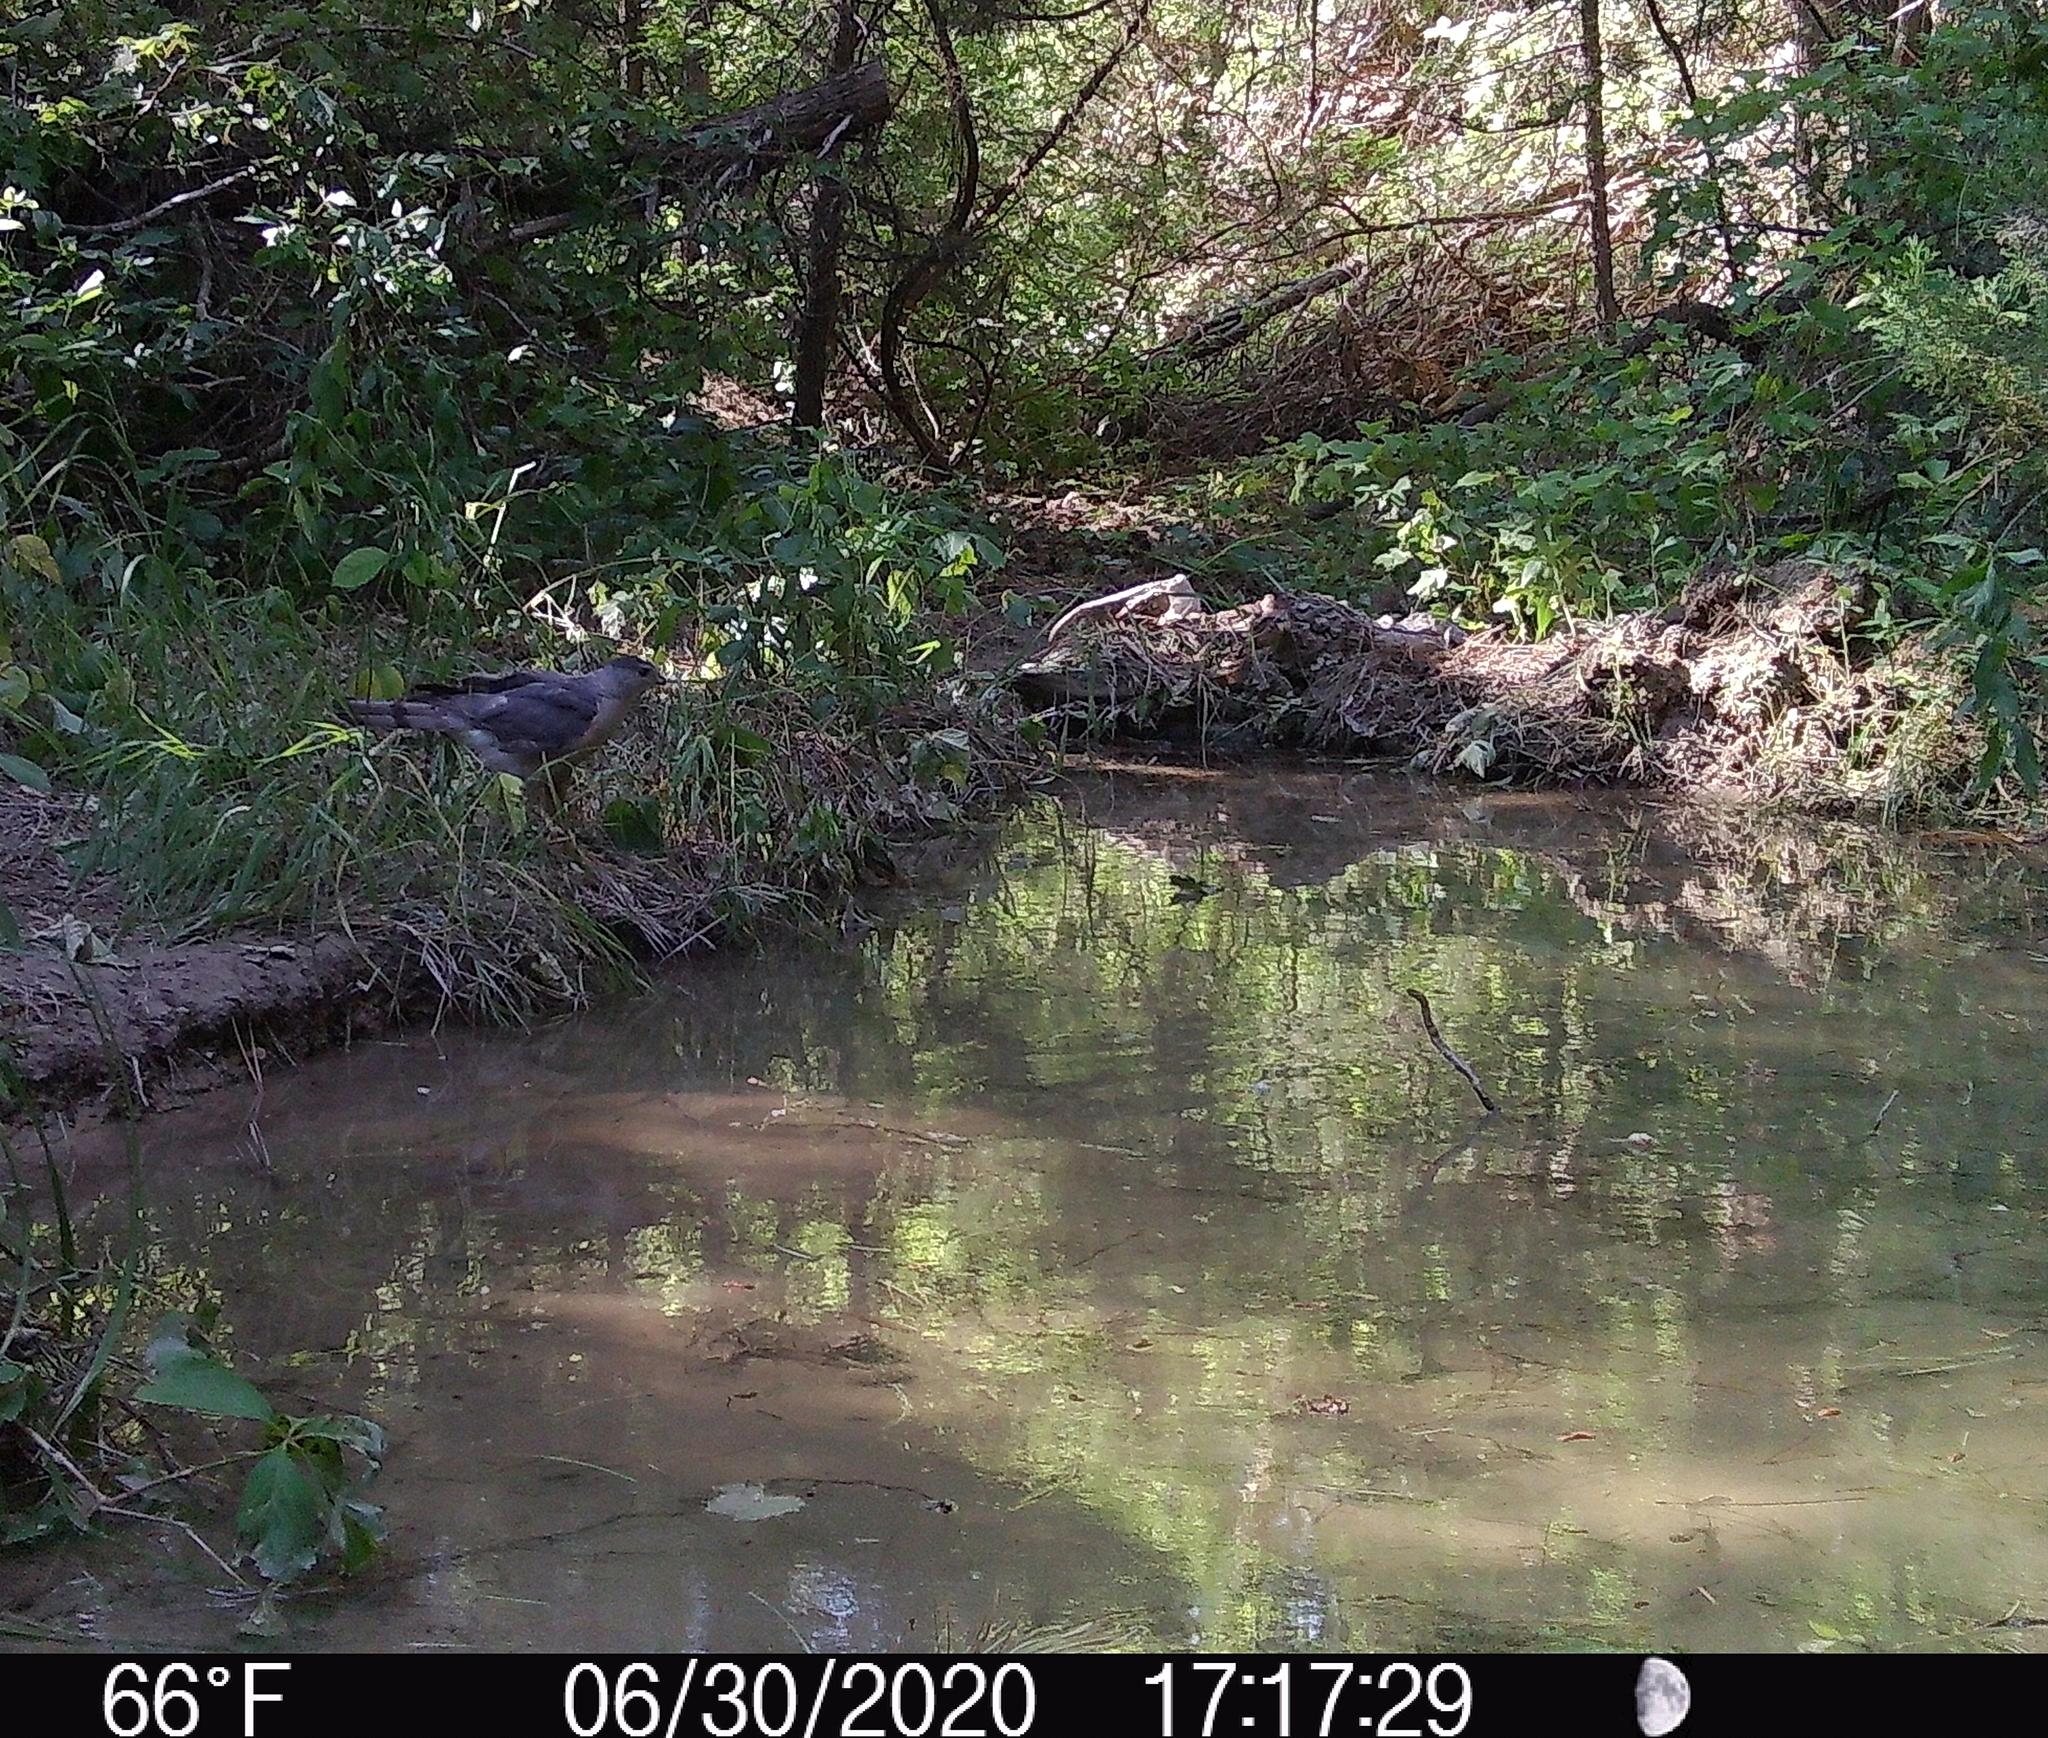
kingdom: Animalia
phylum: Chordata
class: Aves
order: Accipitriformes
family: Accipitridae
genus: Accipiter
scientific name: Accipiter cooperii
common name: Cooper's hawk
